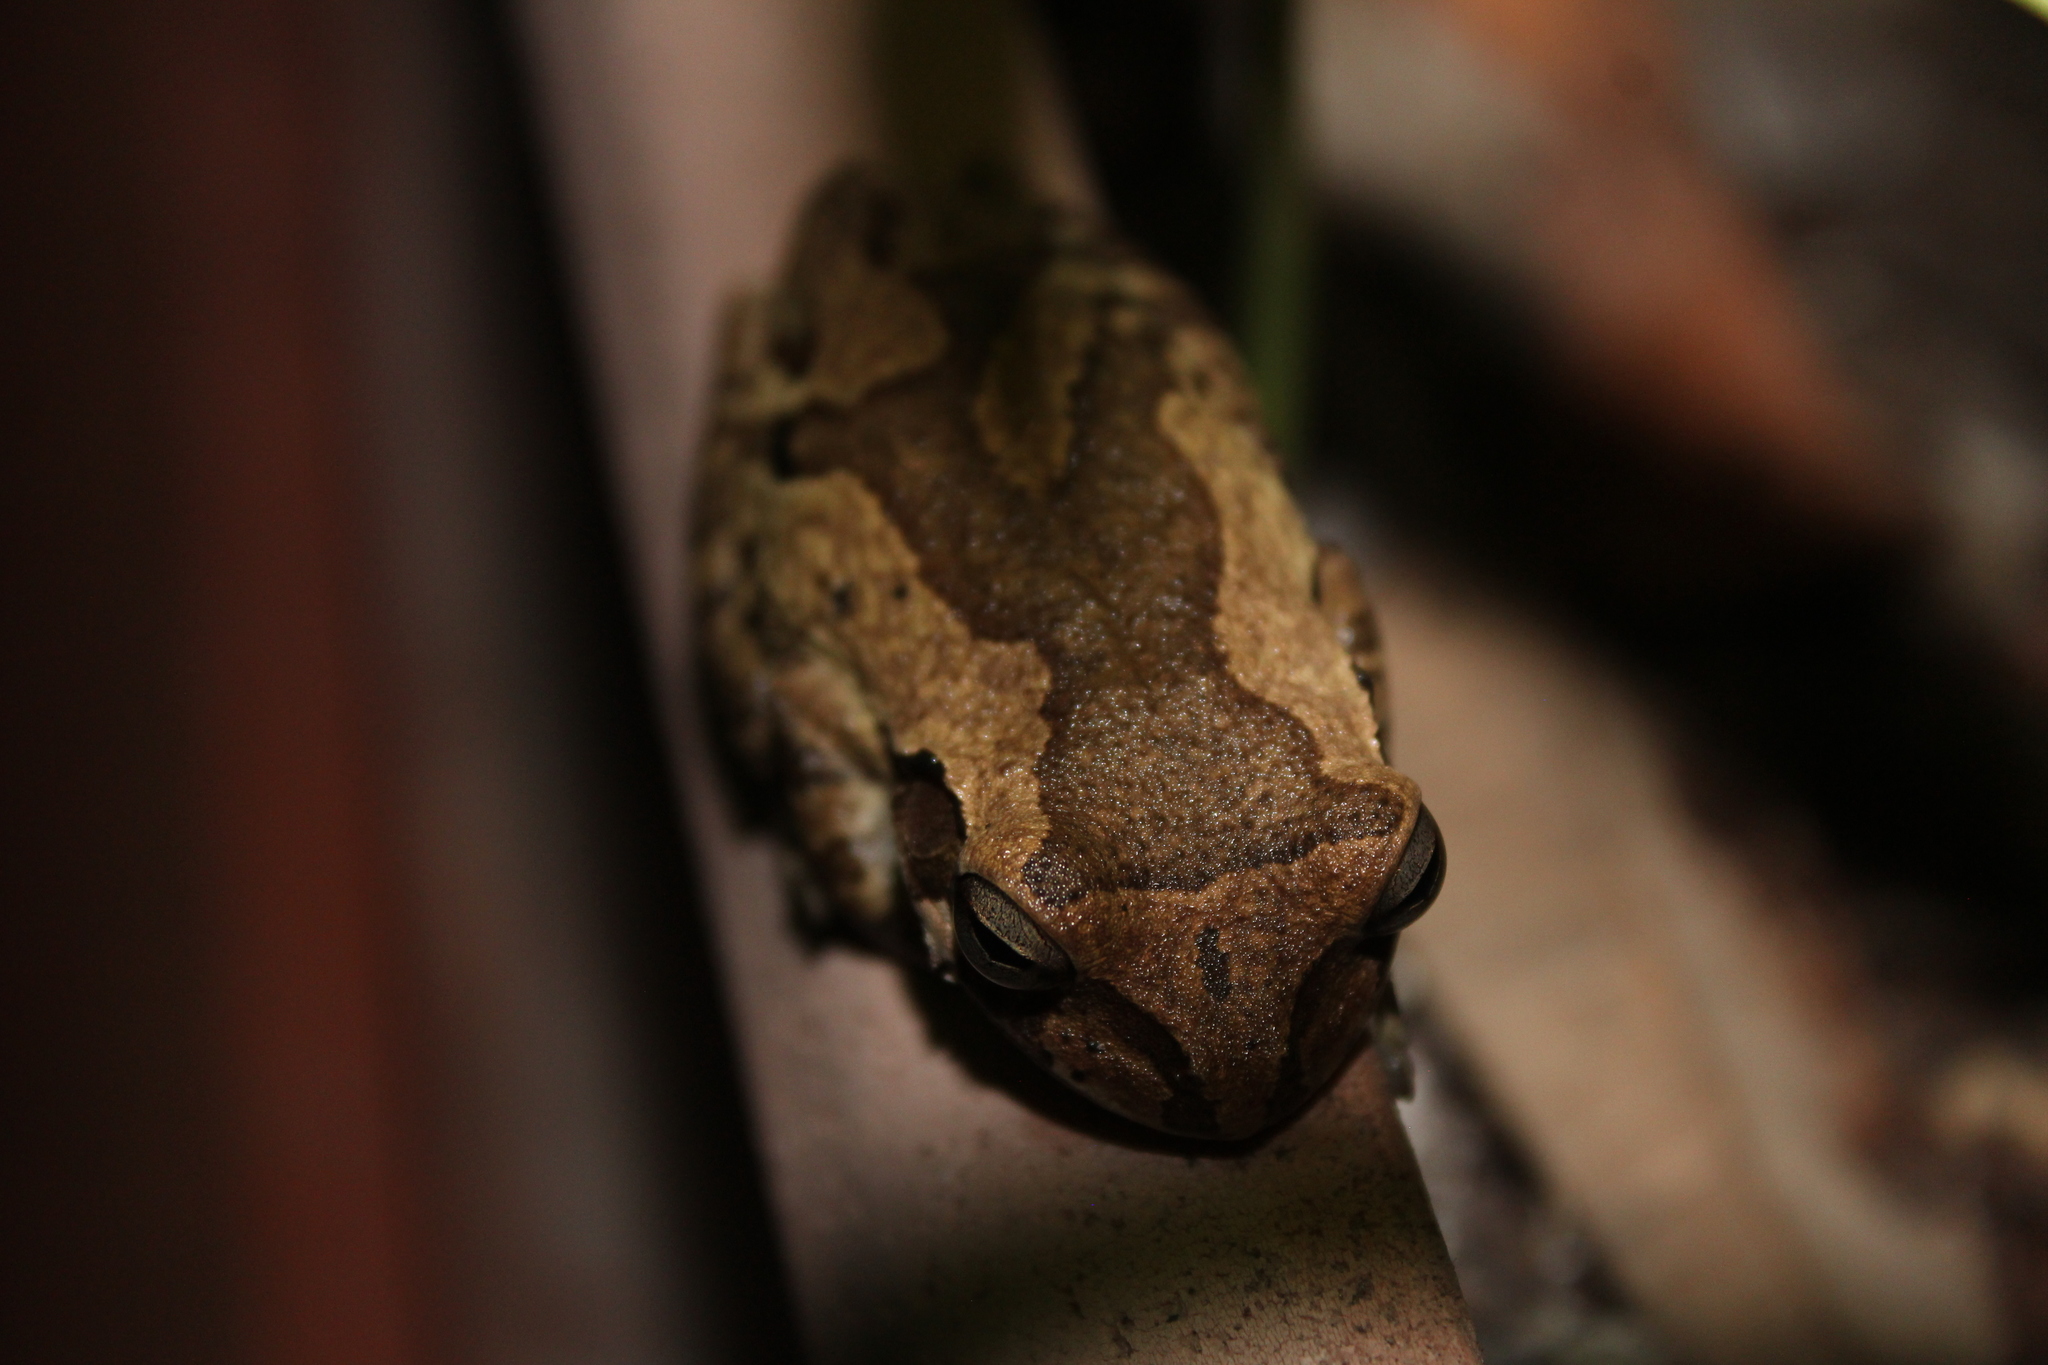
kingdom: Animalia
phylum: Chordata
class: Amphibia
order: Anura
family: Hylidae
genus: Smilisca
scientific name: Smilisca baudinii
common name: Mexican smilisca
